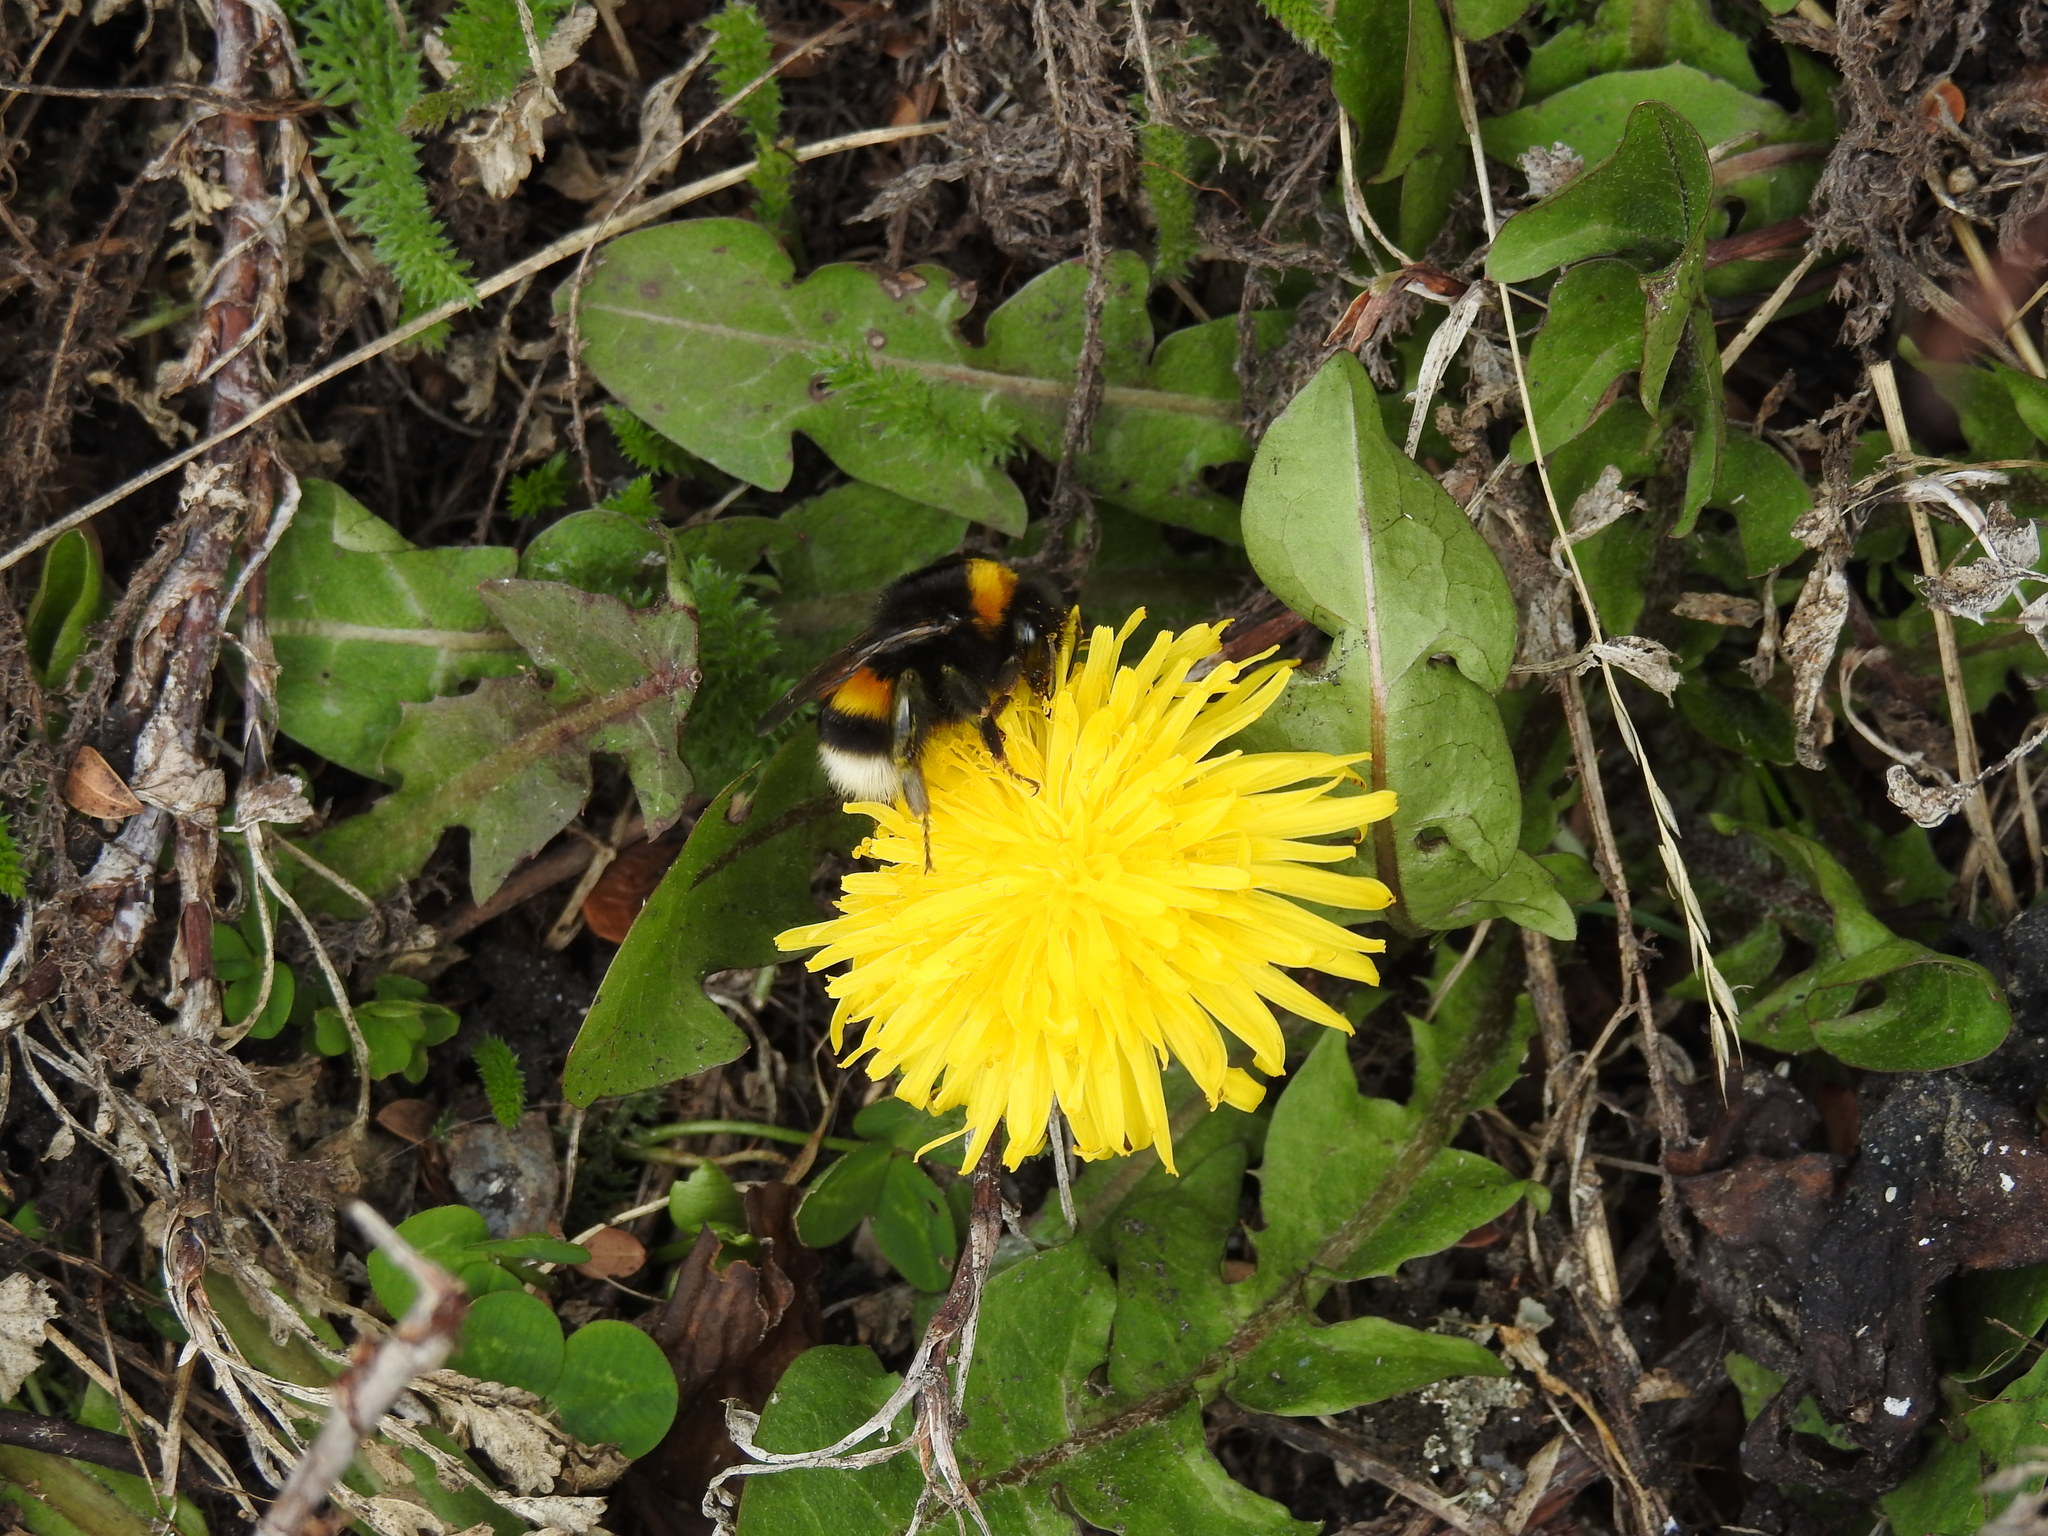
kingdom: Animalia
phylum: Arthropoda
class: Insecta
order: Hymenoptera
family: Apidae
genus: Bombus
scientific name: Bombus terrestris
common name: Buff-tailed bumblebee
